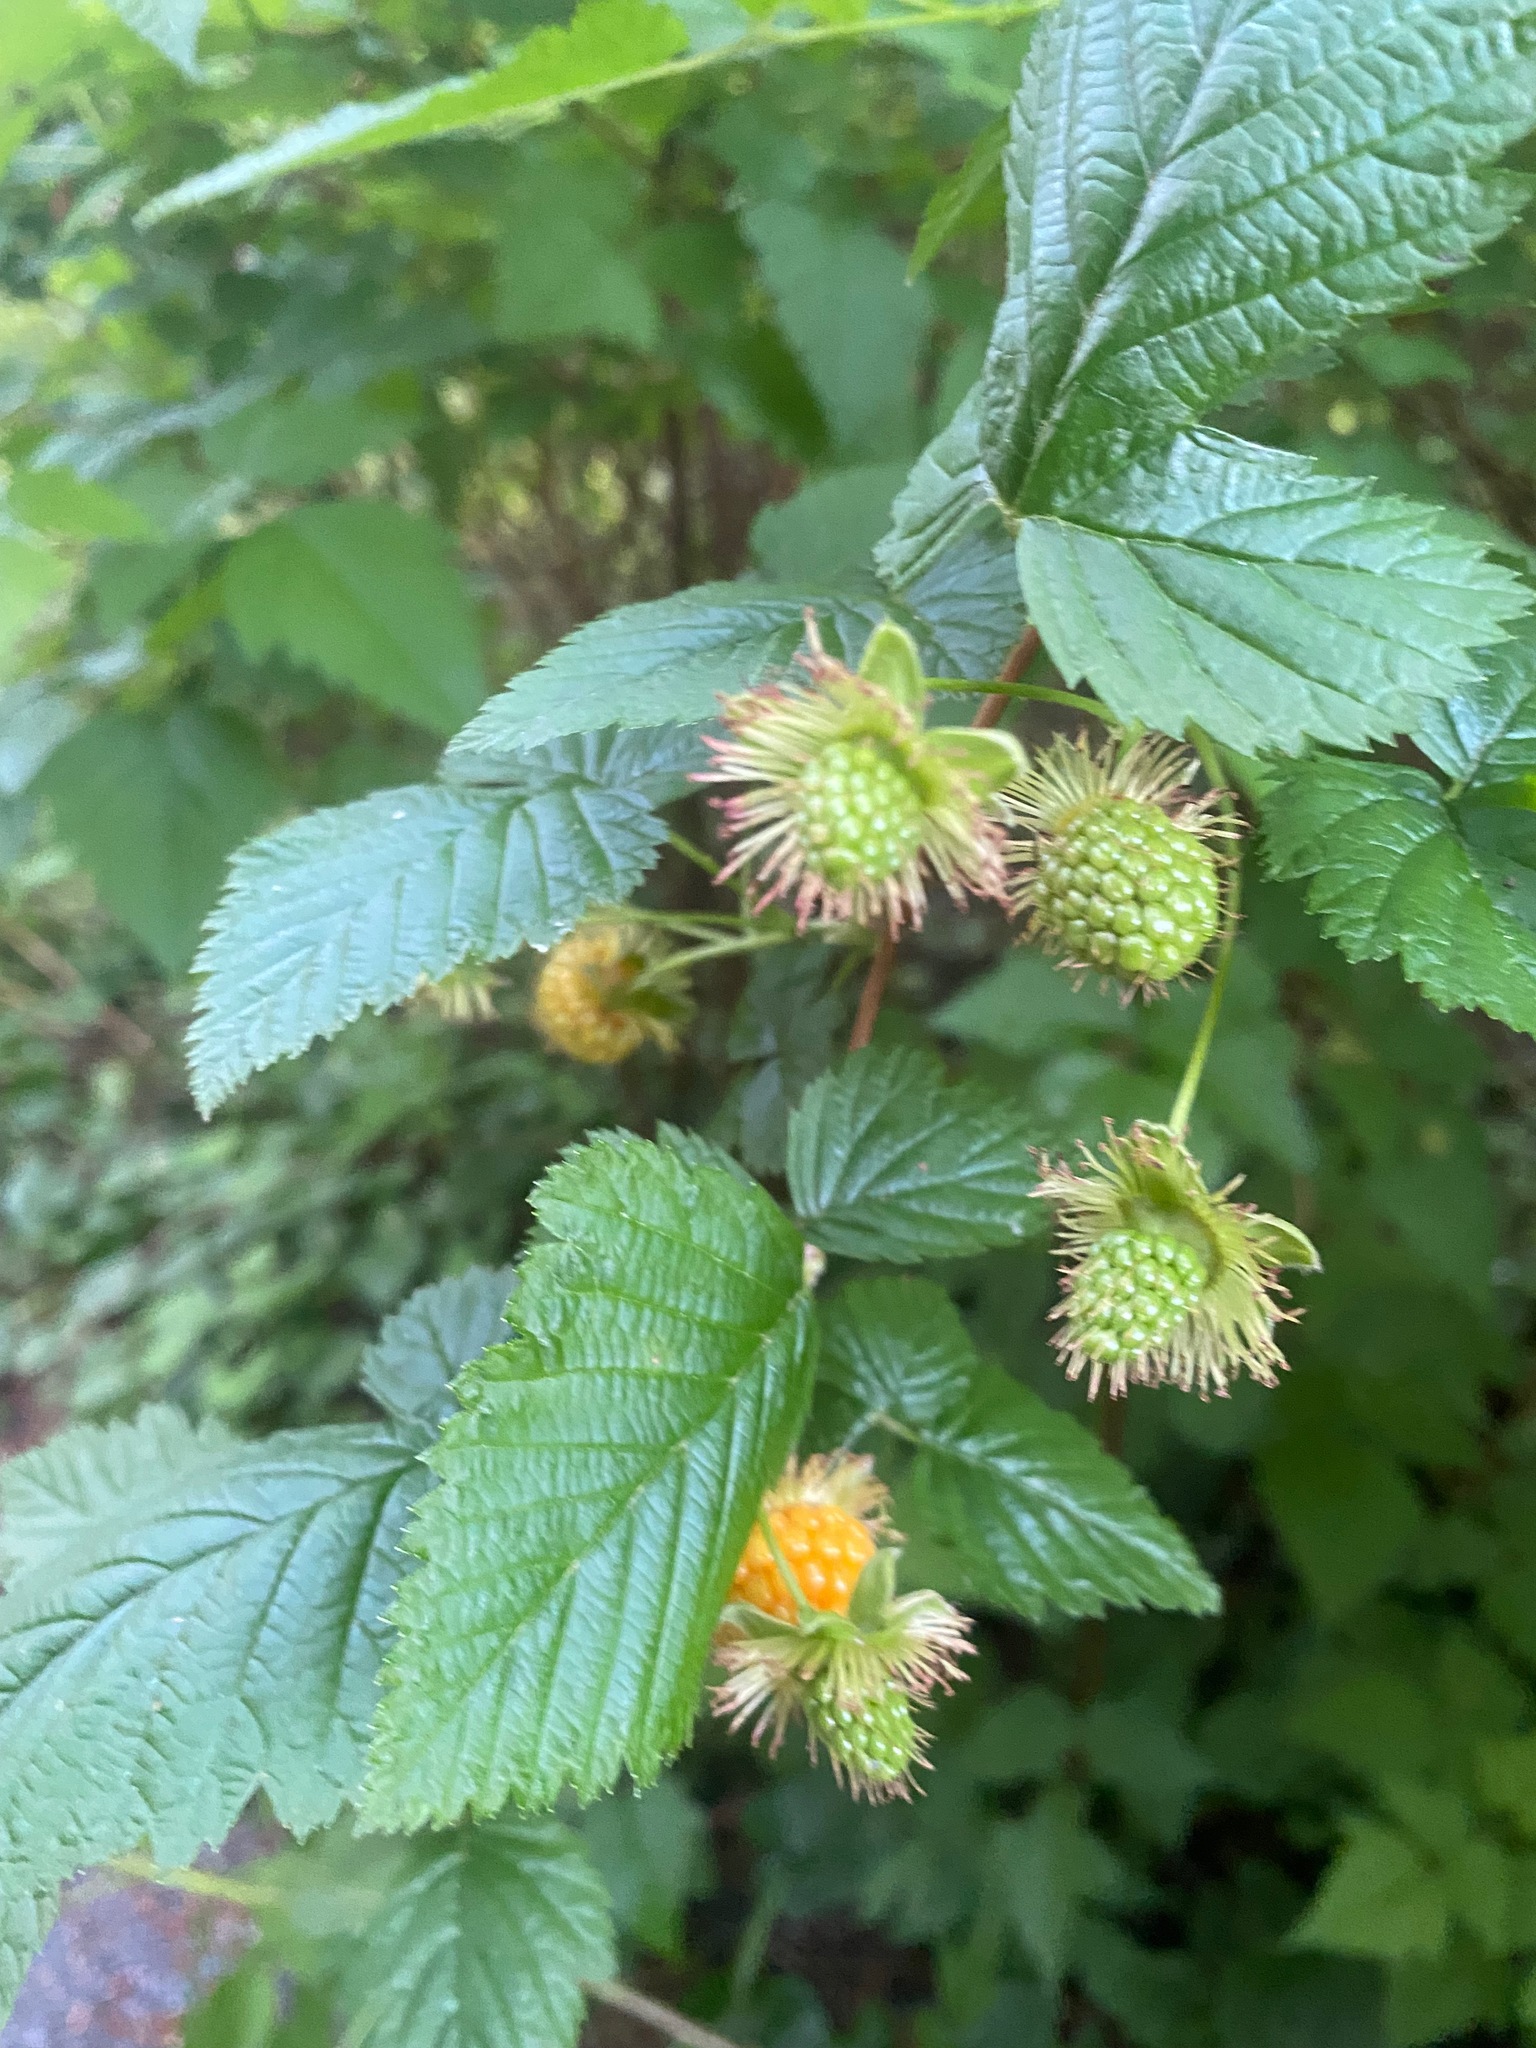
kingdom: Plantae
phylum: Tracheophyta
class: Magnoliopsida
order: Rosales
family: Rosaceae
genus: Rubus
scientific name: Rubus spectabilis
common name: Salmonberry
